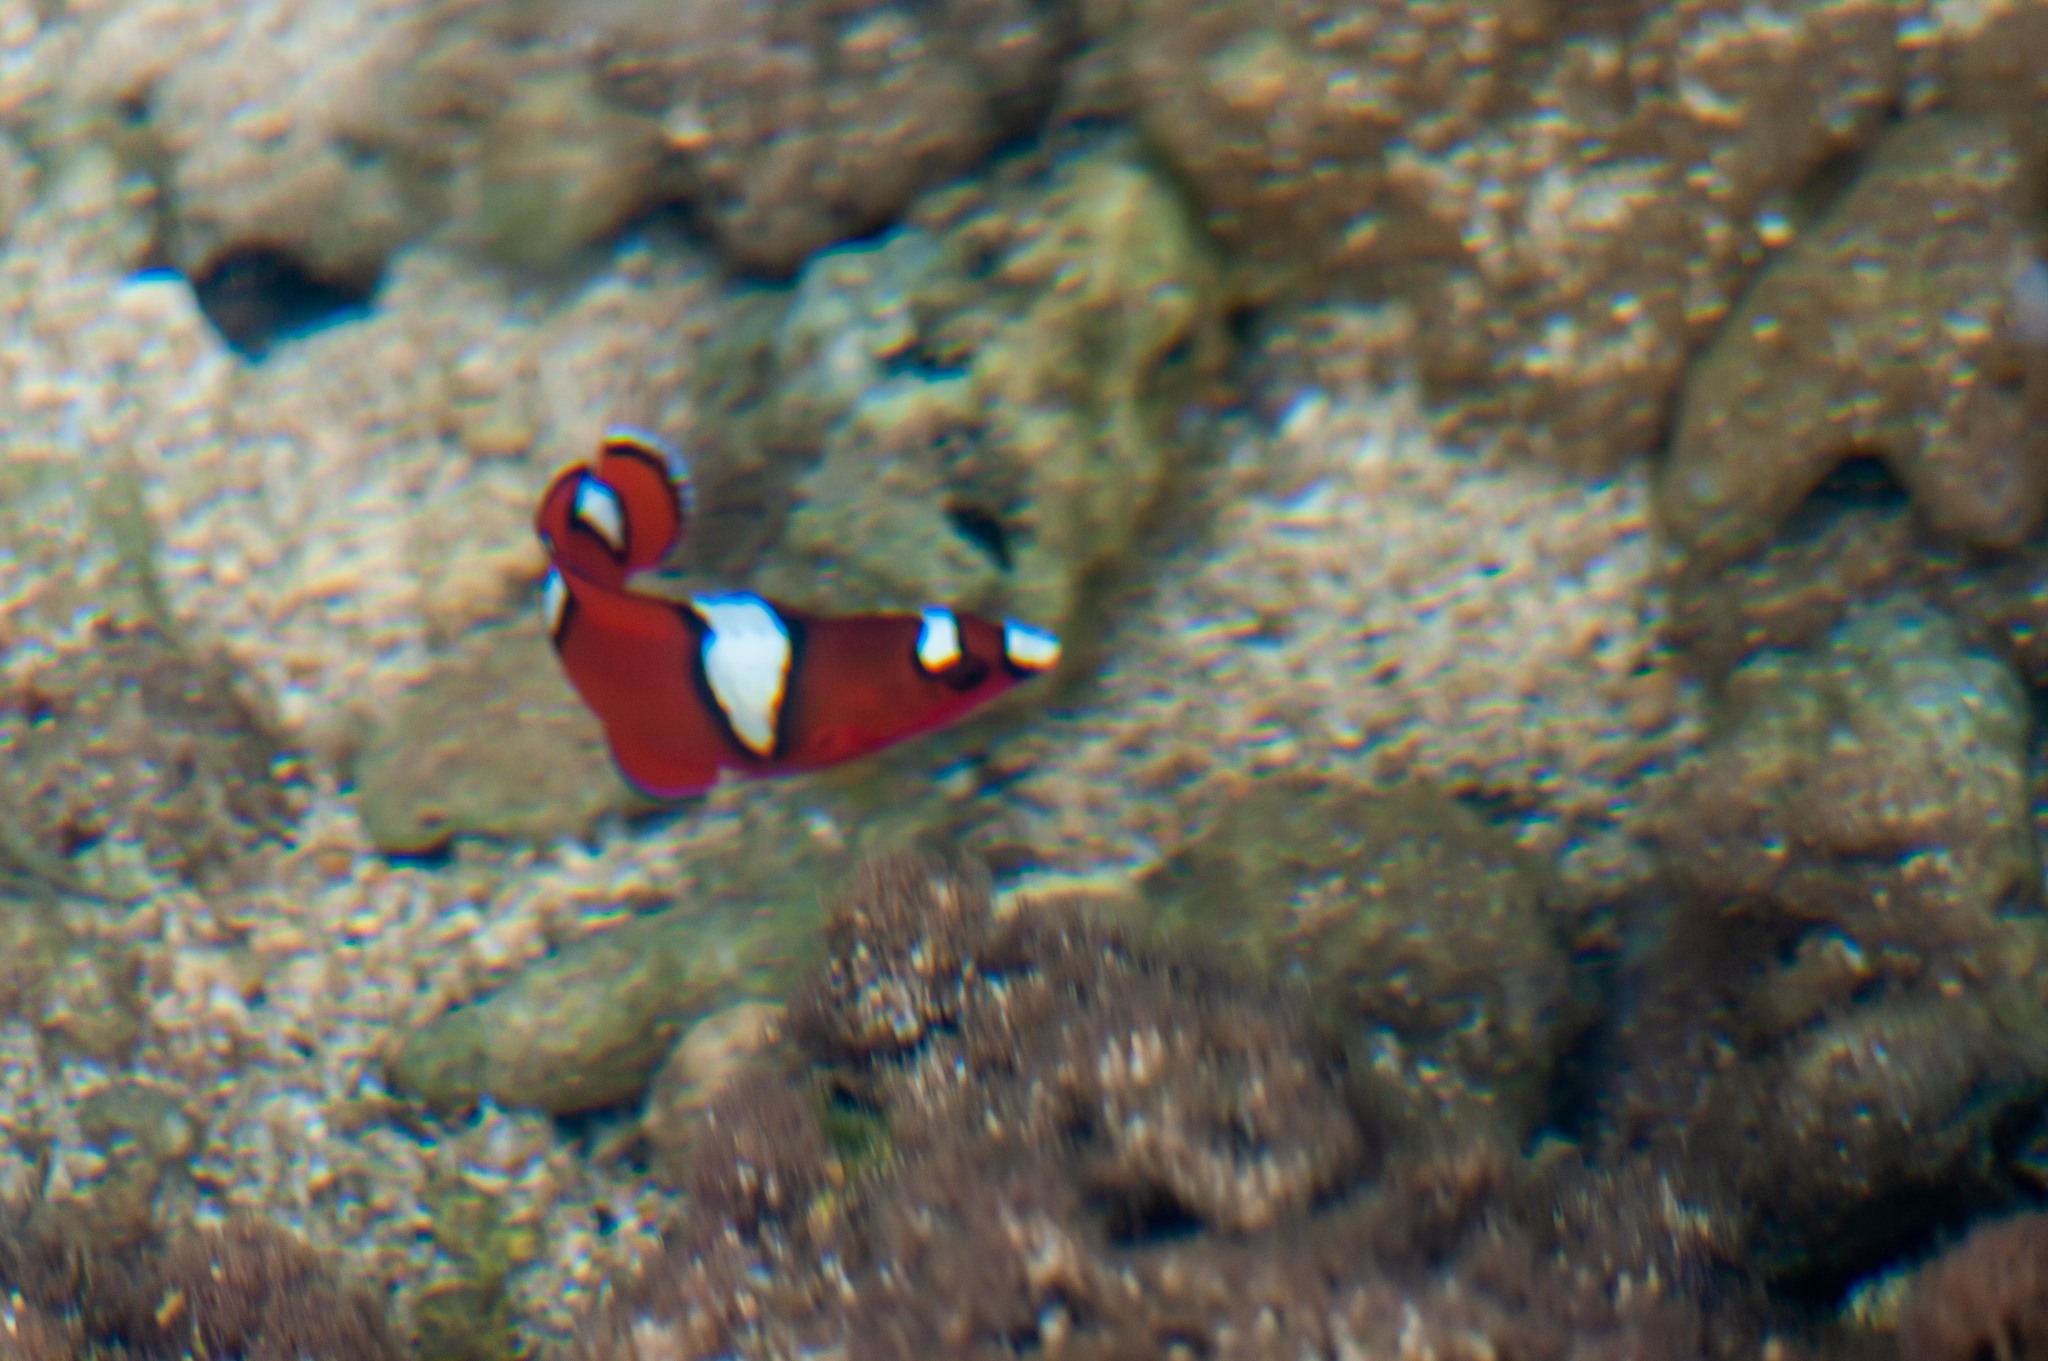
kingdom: Animalia
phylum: Chordata
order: Perciformes
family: Labridae
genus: Coris
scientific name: Coris gaimard
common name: Yellowtail coris
